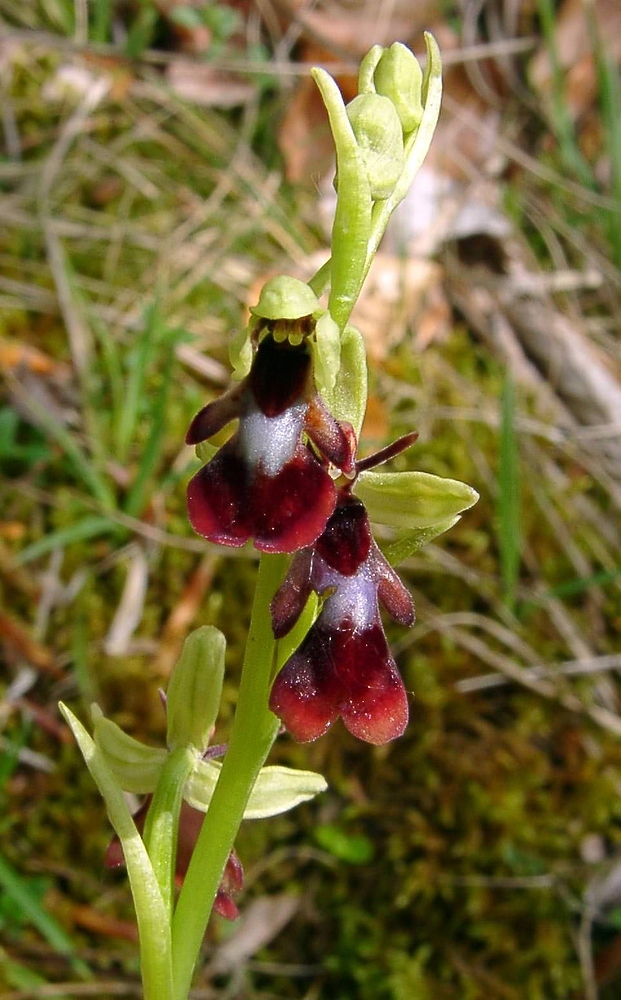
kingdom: Plantae
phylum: Tracheophyta
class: Liliopsida
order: Asparagales
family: Orchidaceae
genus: Ophrys
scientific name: Ophrys insectifera
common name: Fly orchid
